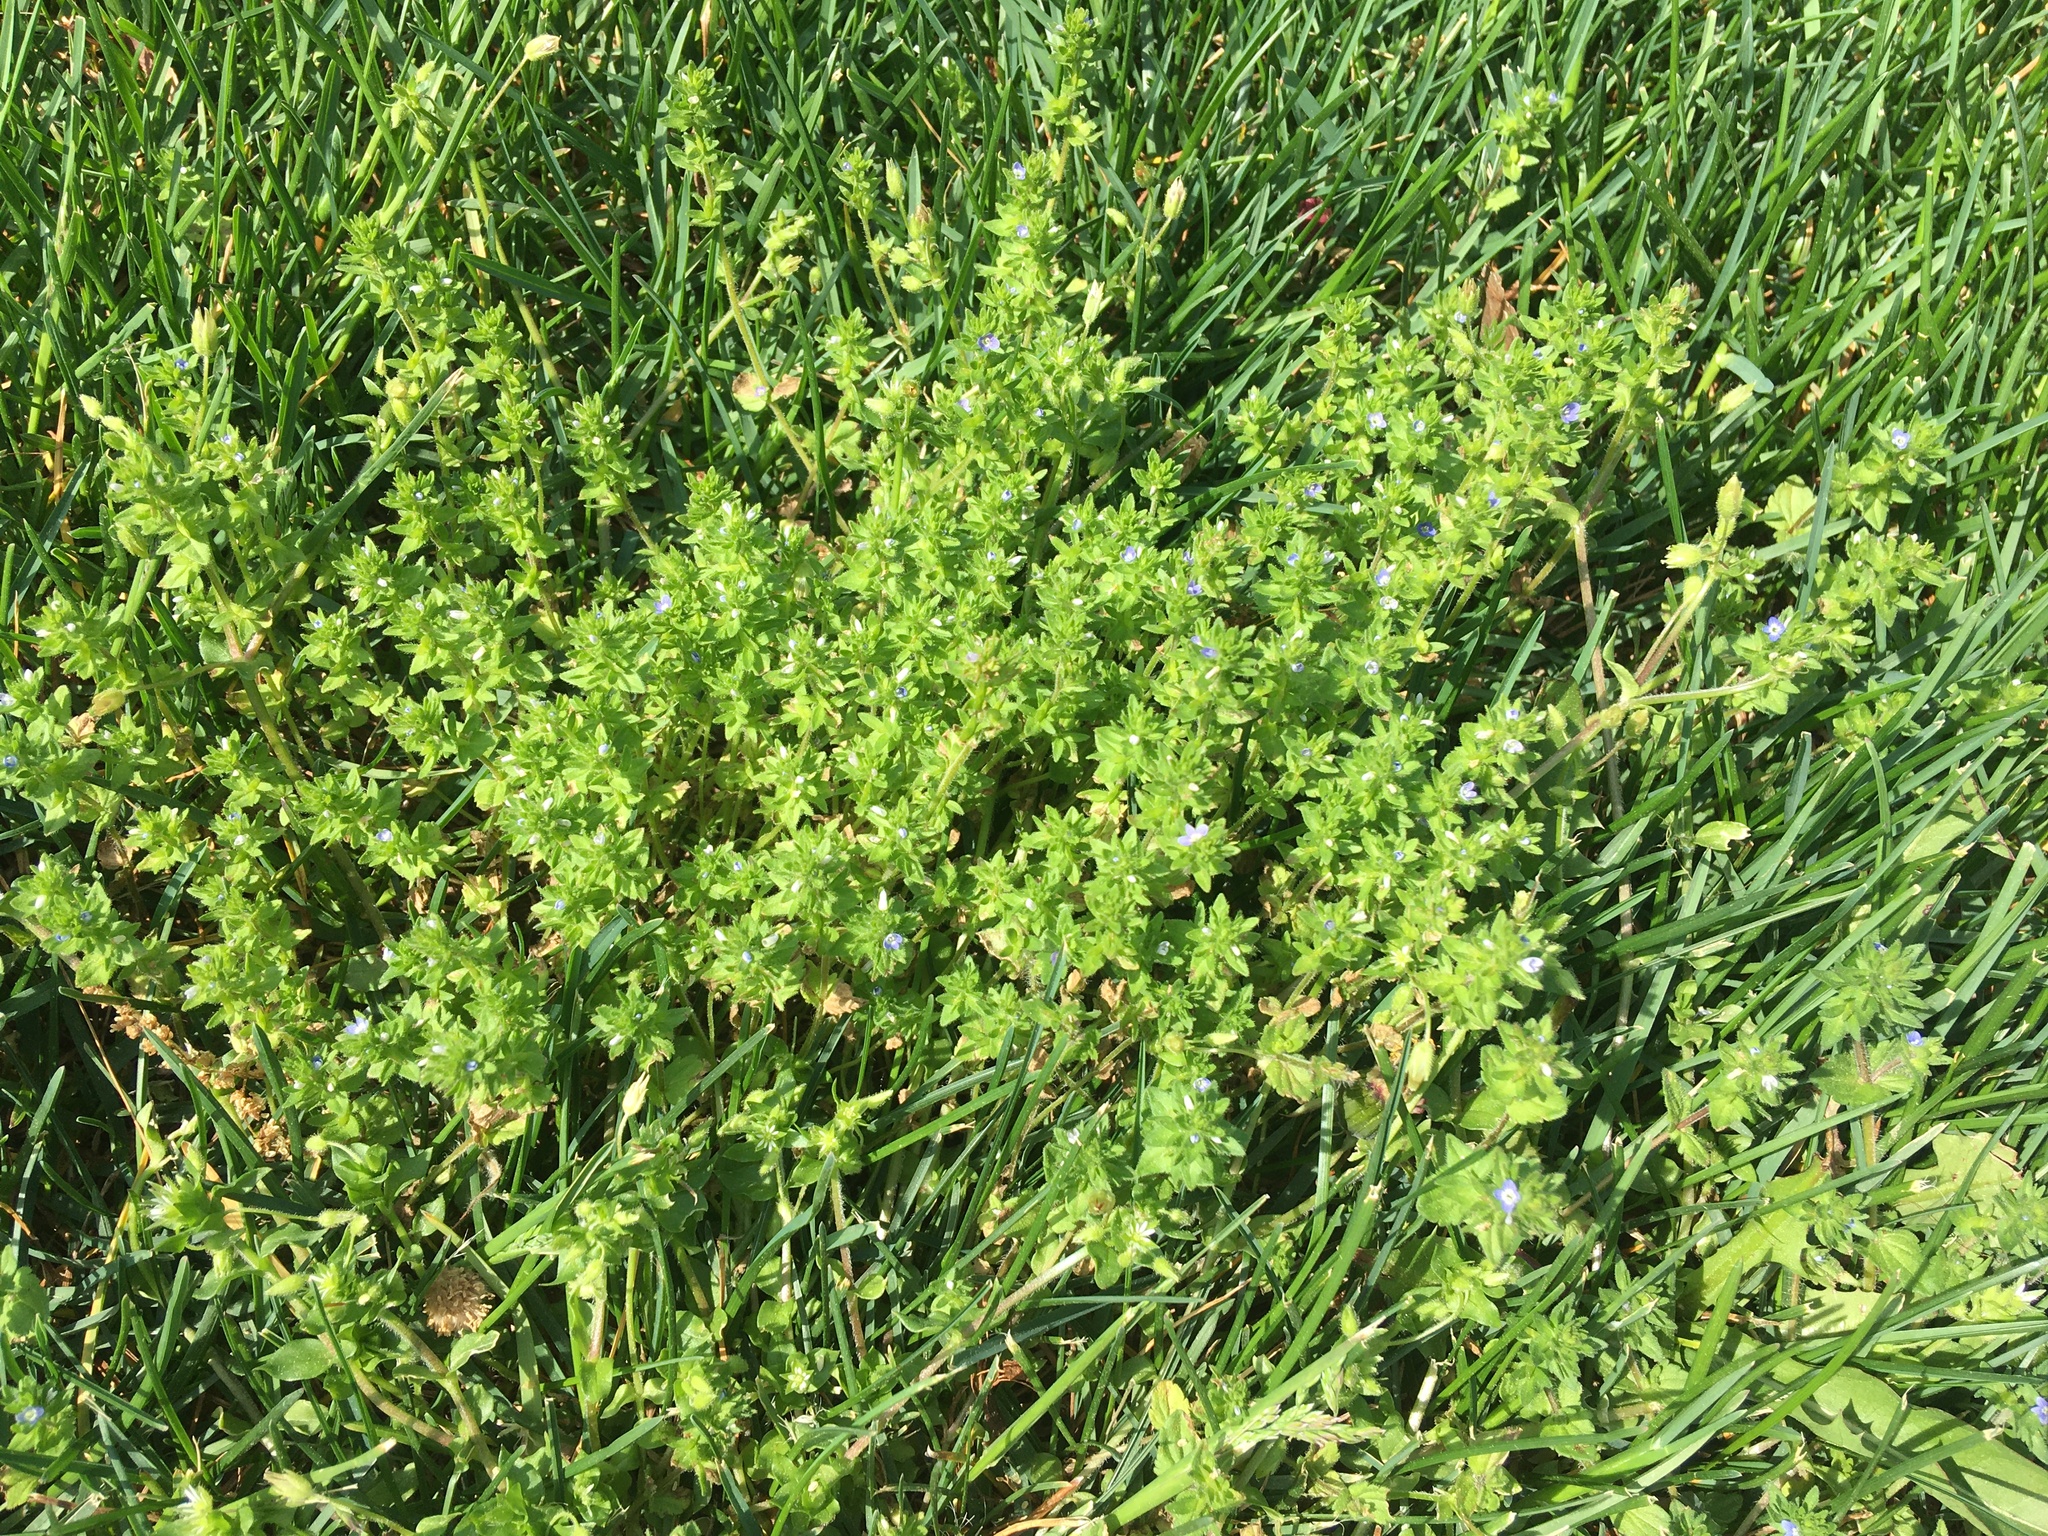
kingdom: Plantae
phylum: Tracheophyta
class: Magnoliopsida
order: Lamiales
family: Plantaginaceae
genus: Veronica
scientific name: Veronica arvensis
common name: Corn speedwell
